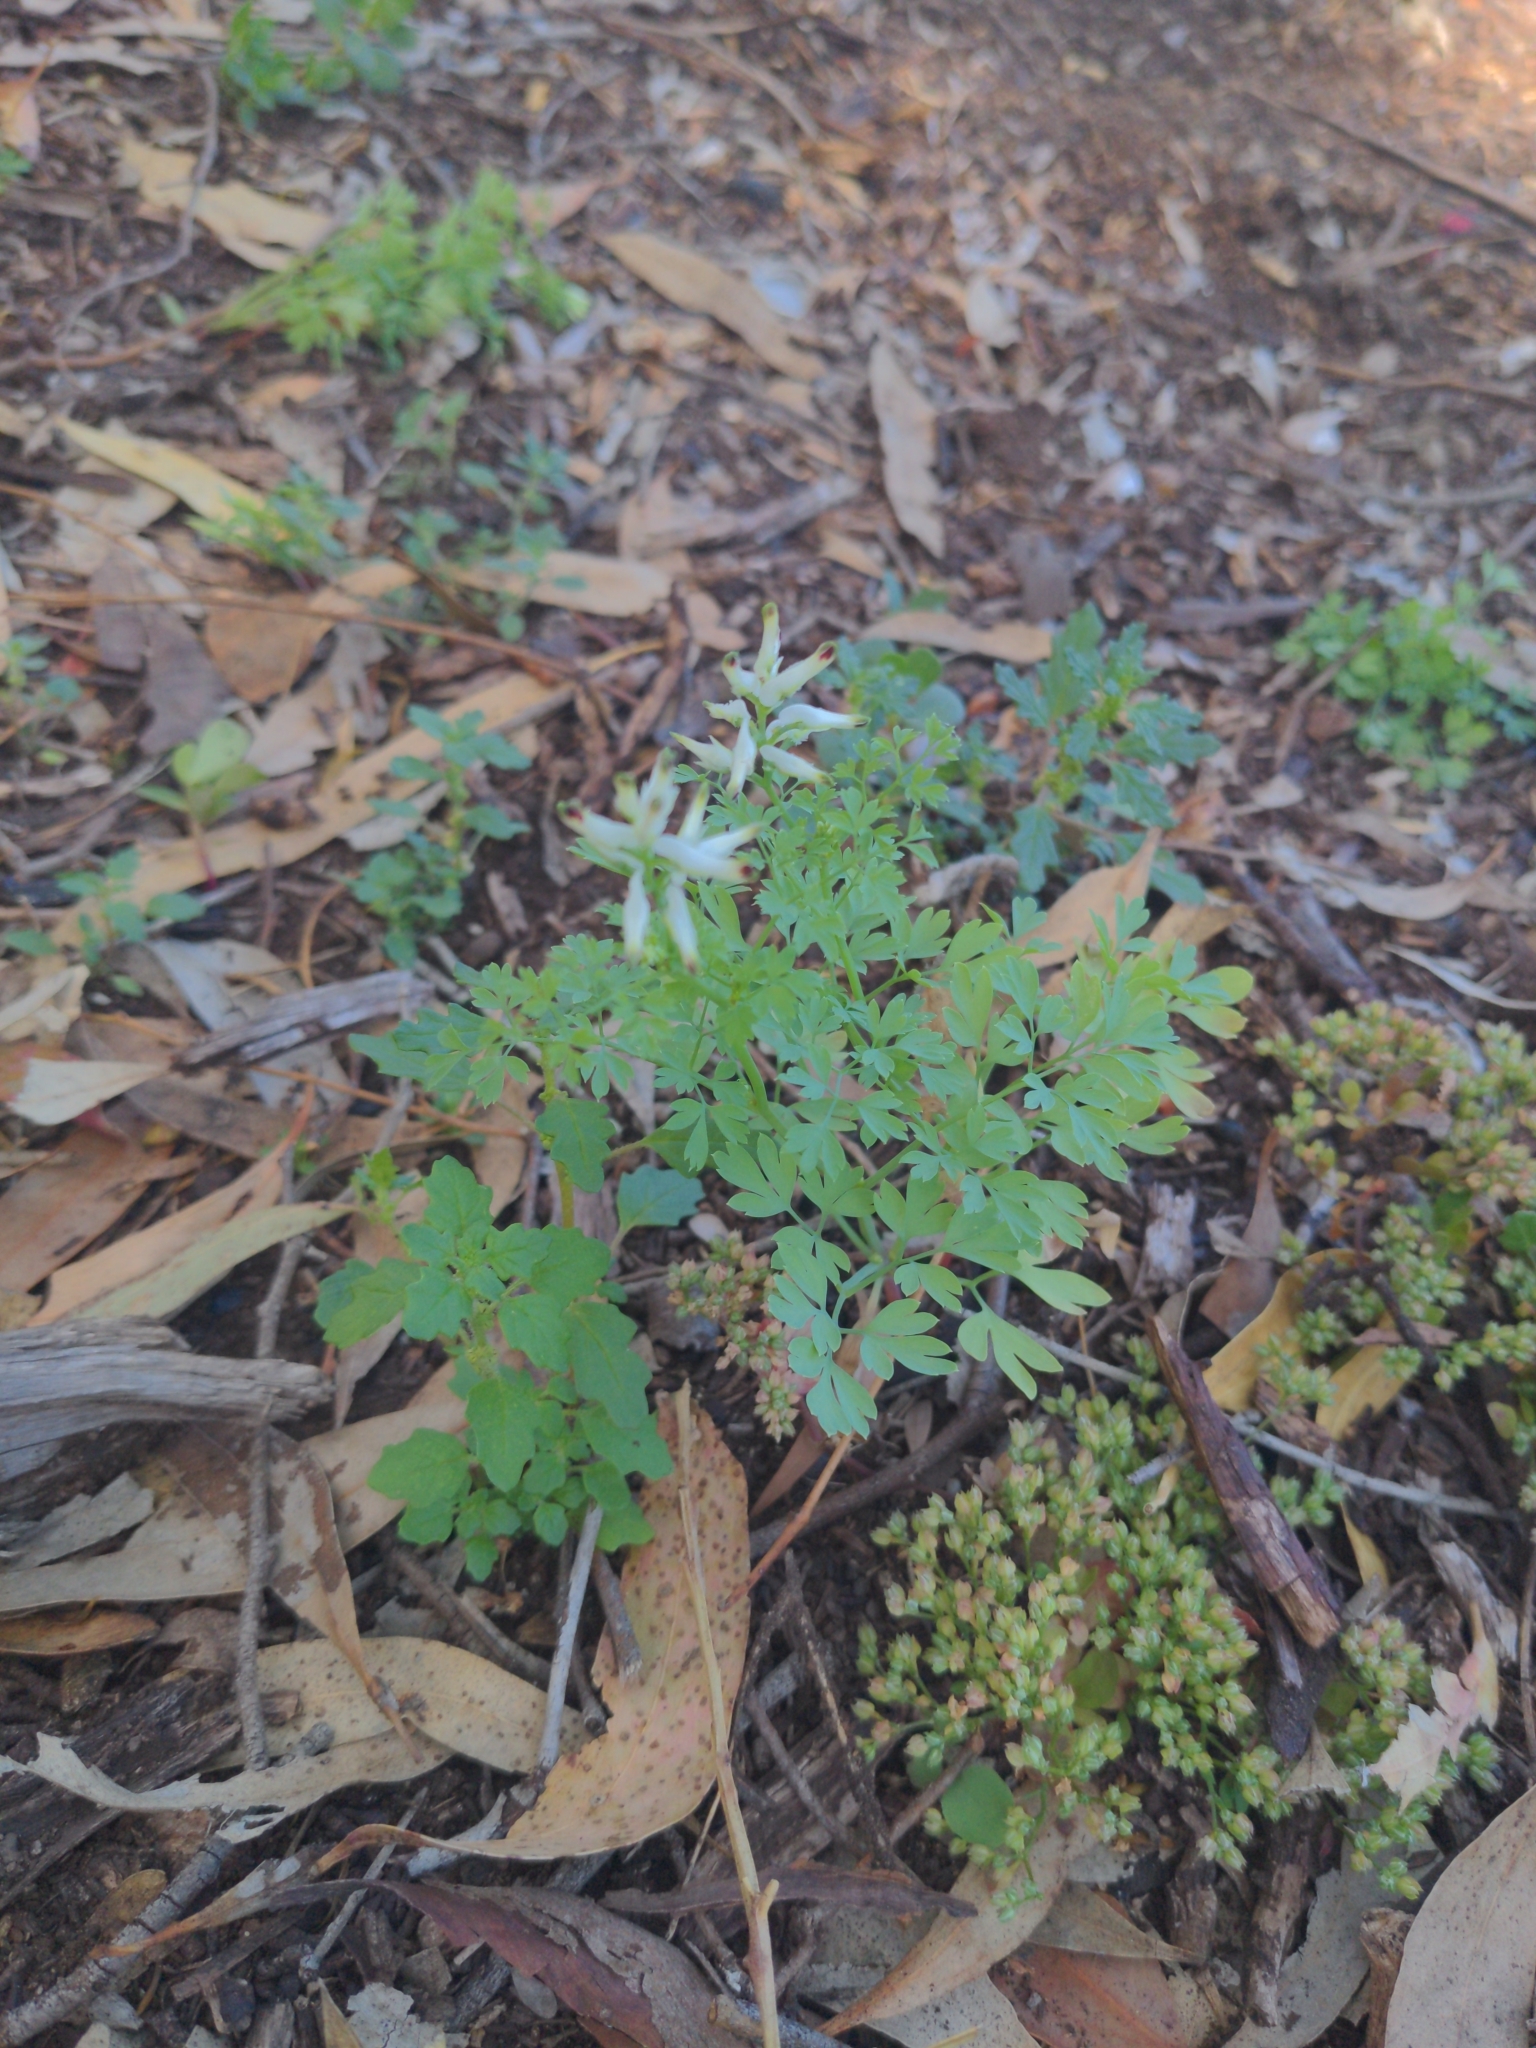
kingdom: Plantae
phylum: Tracheophyta
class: Magnoliopsida
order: Ranunculales
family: Papaveraceae
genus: Fumaria
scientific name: Fumaria capreolata
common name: White ramping-fumitory
